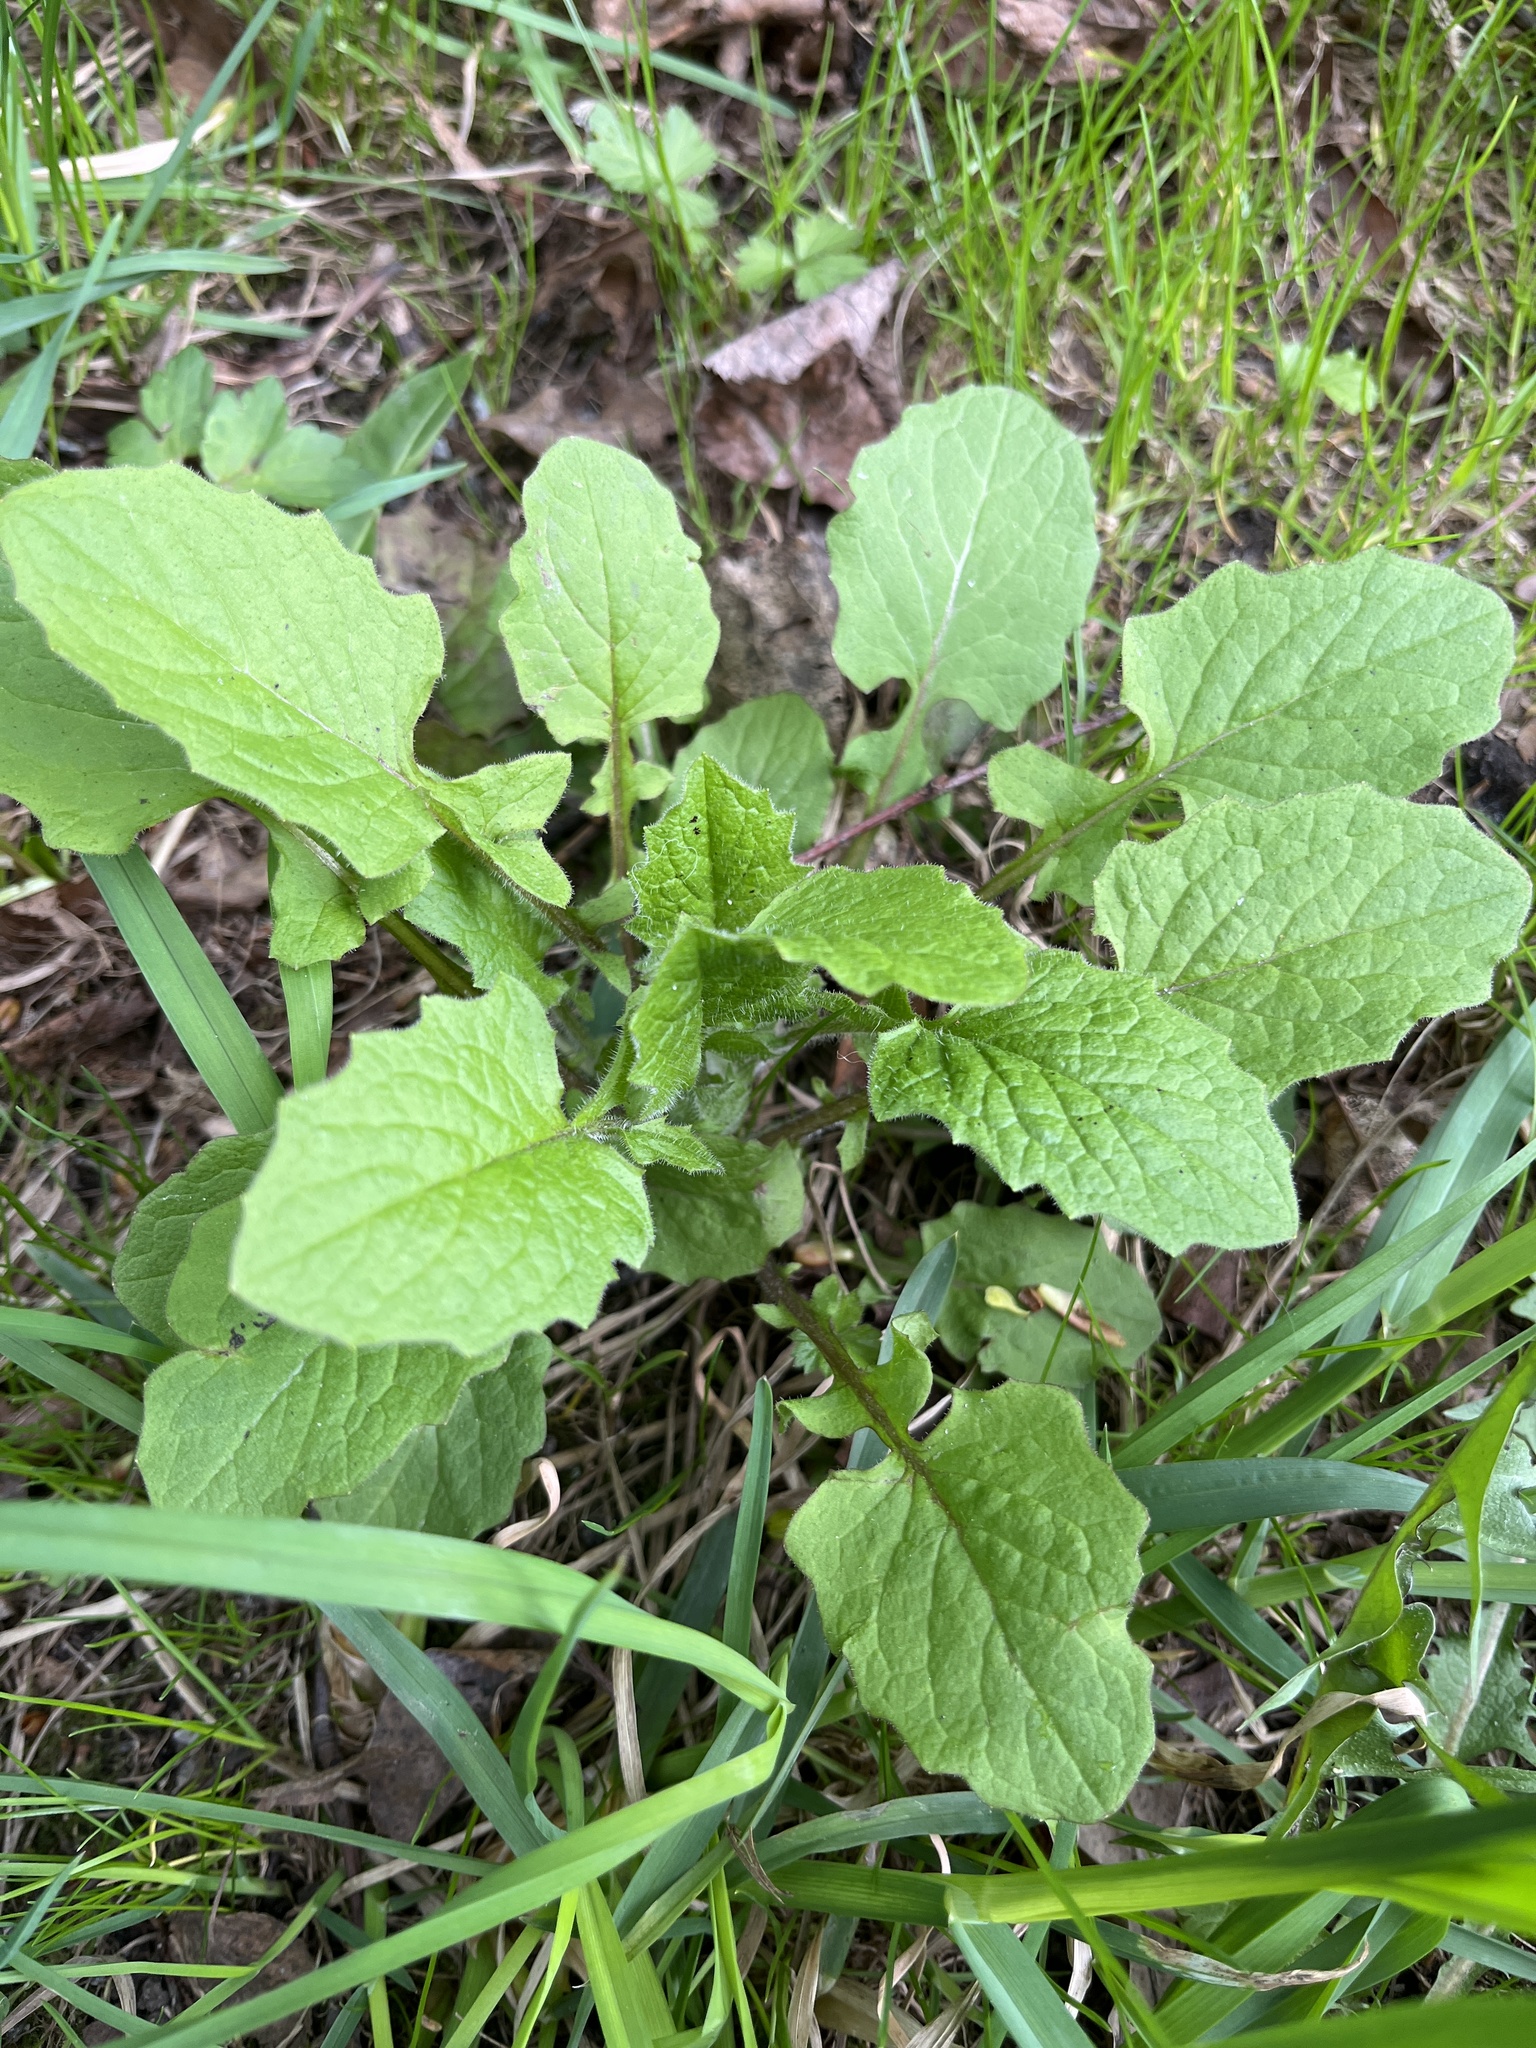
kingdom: Plantae
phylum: Tracheophyta
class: Magnoliopsida
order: Asterales
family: Asteraceae
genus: Lapsana
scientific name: Lapsana communis
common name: Nipplewort
